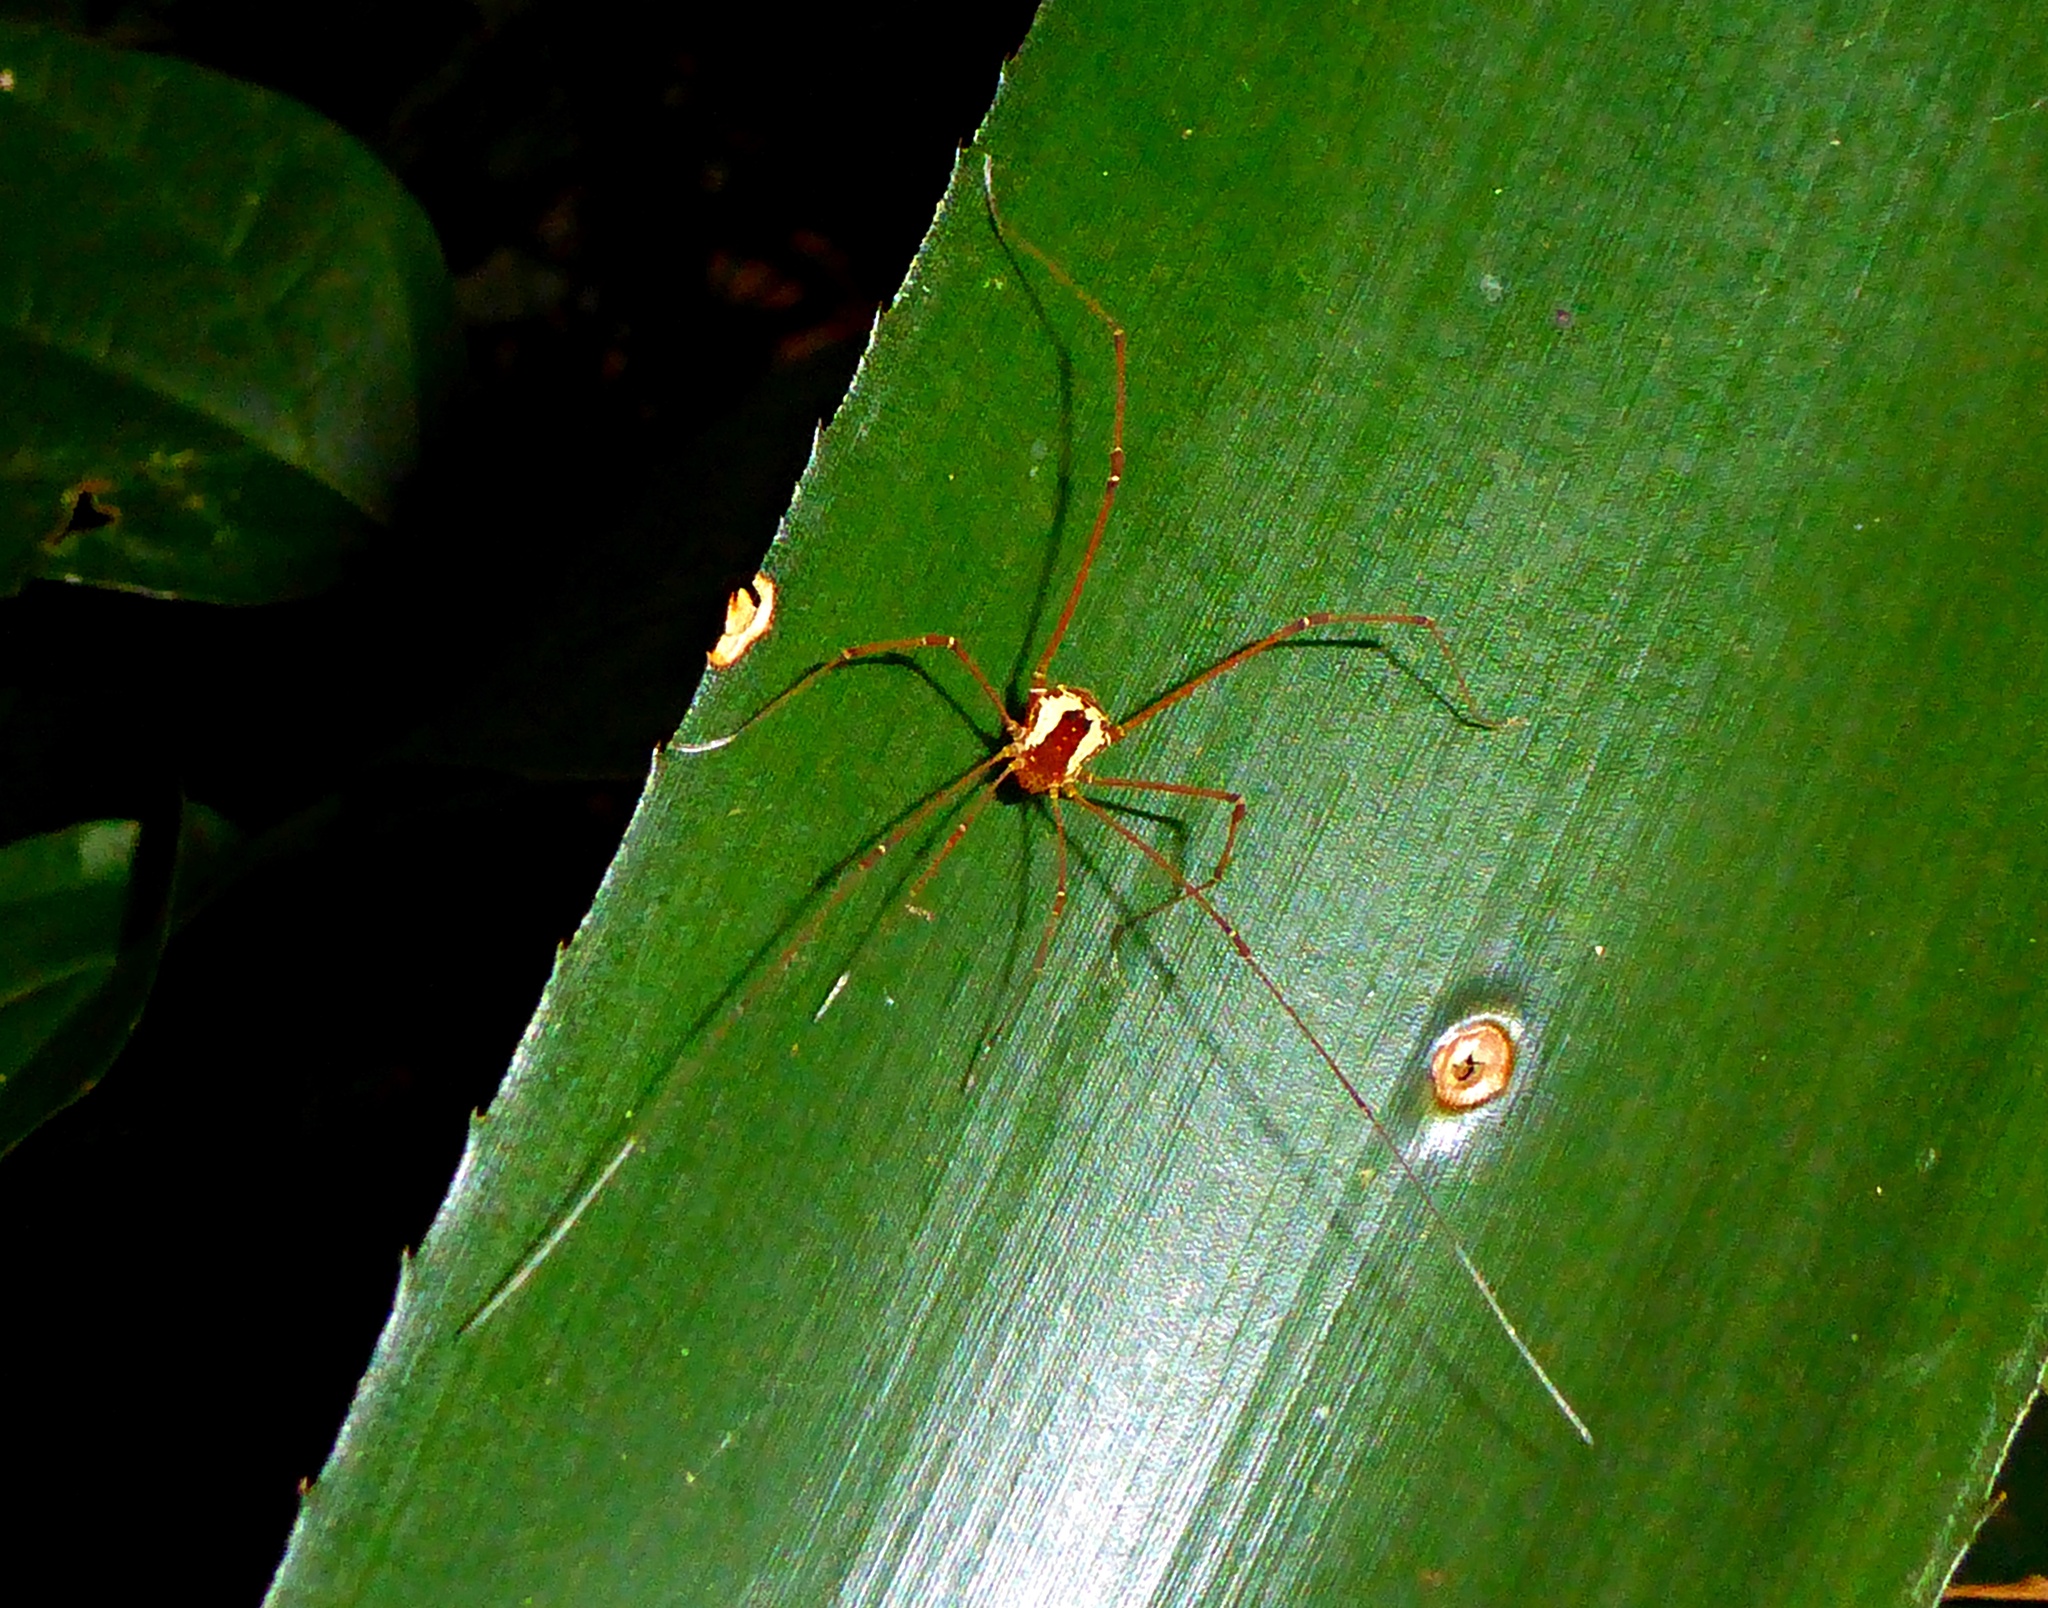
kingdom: Animalia
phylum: Arthropoda
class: Arachnida
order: Opiliones
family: Cosmetidae
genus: Paecilaema
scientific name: Paecilaema u-flavum
